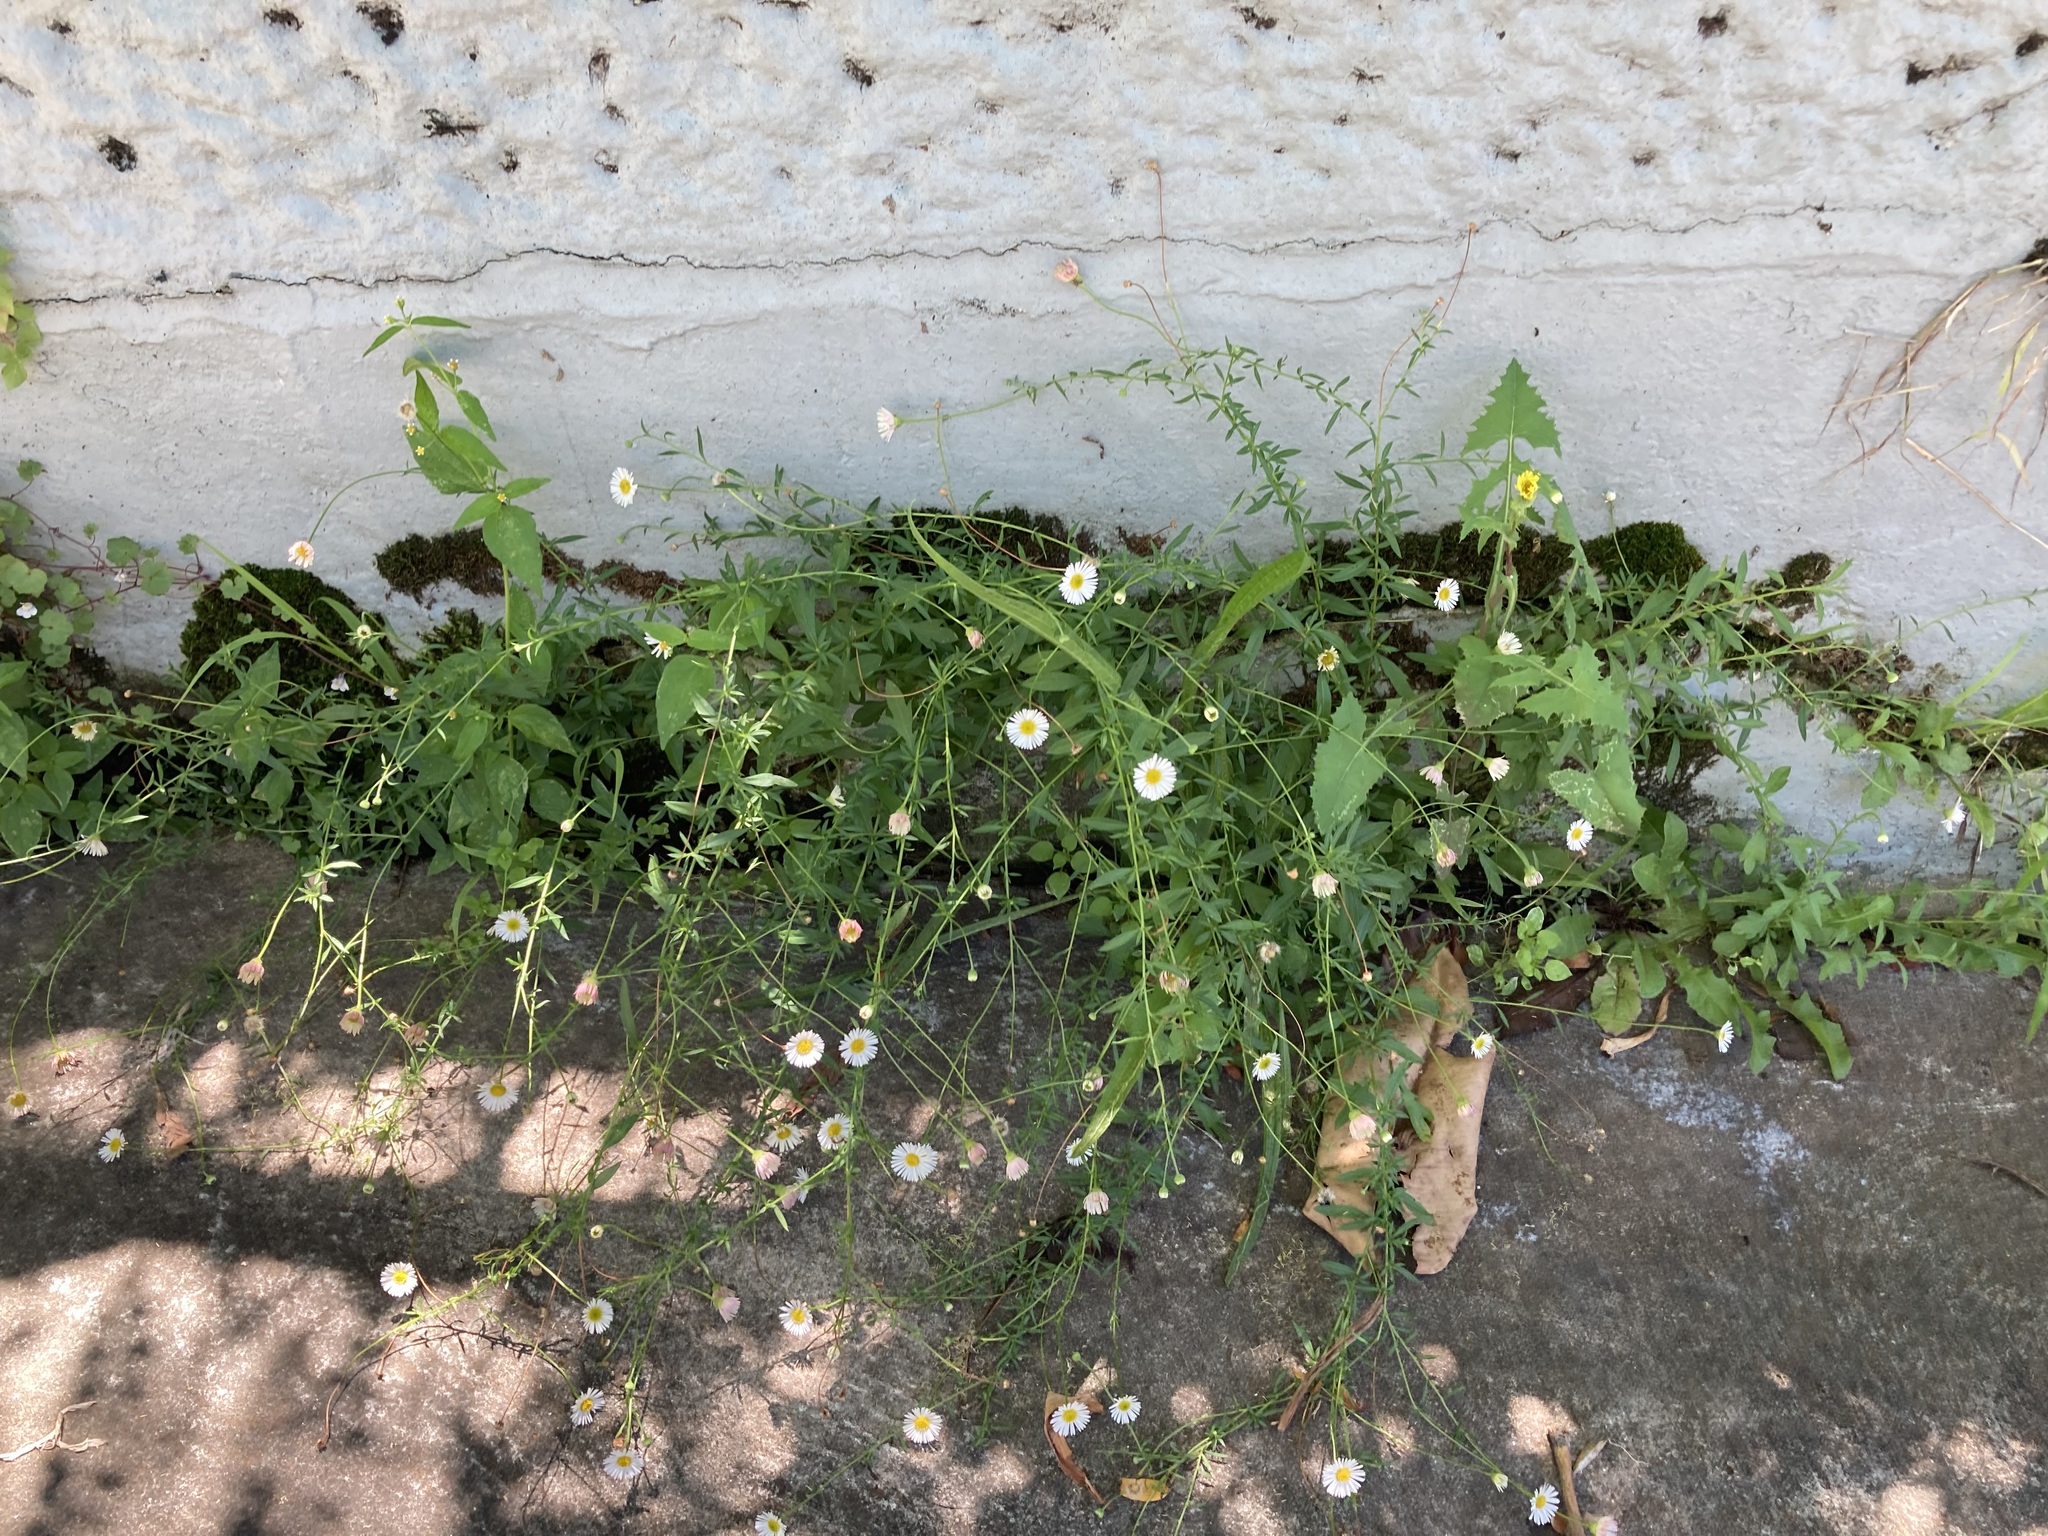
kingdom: Plantae
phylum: Tracheophyta
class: Magnoliopsida
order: Asterales
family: Asteraceae
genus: Erigeron
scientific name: Erigeron karvinskianus
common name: Mexican fleabane
